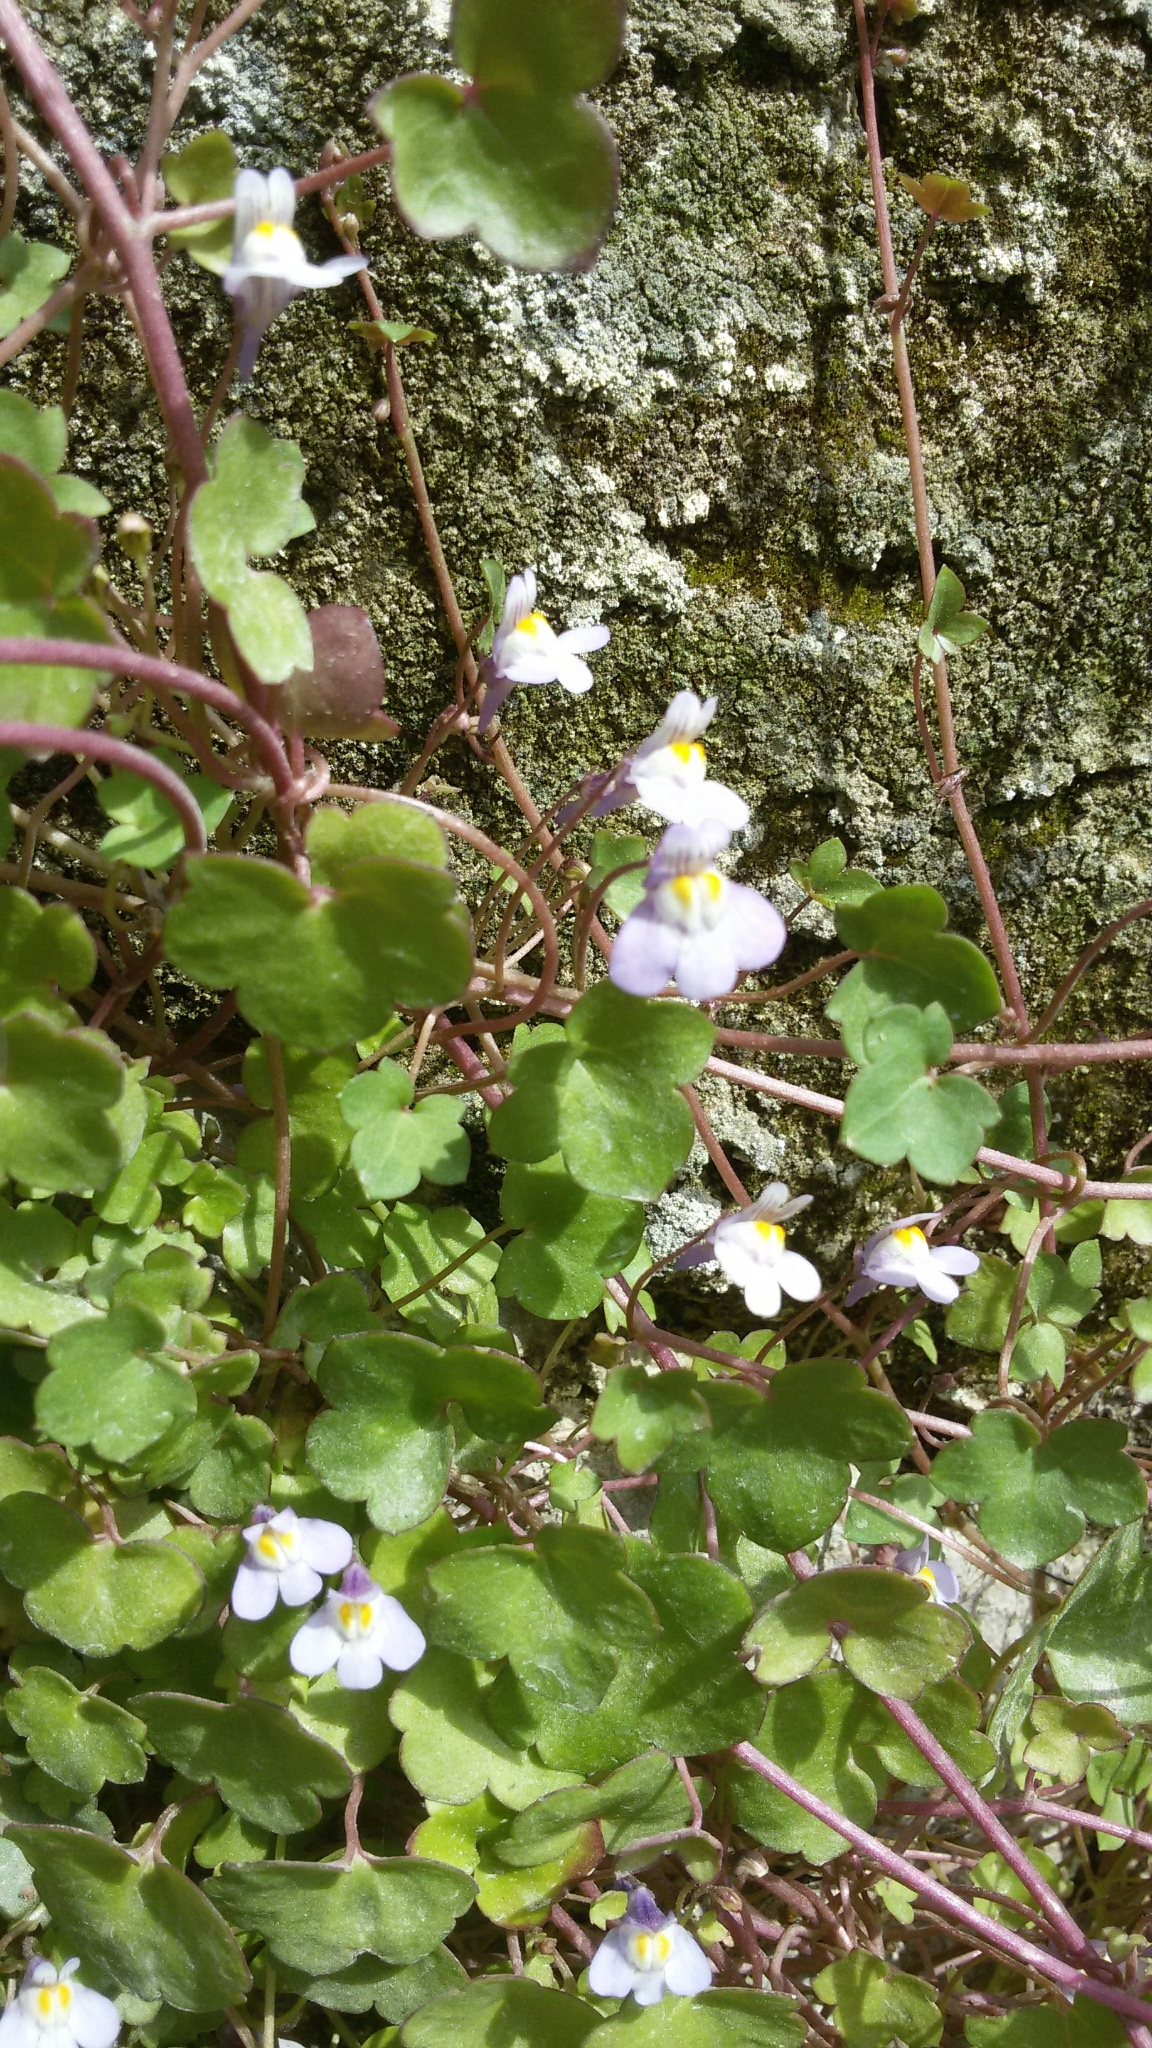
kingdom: Plantae
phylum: Tracheophyta
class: Magnoliopsida
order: Lamiales
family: Plantaginaceae
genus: Cymbalaria
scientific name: Cymbalaria muralis
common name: Ivy-leaved toadflax
